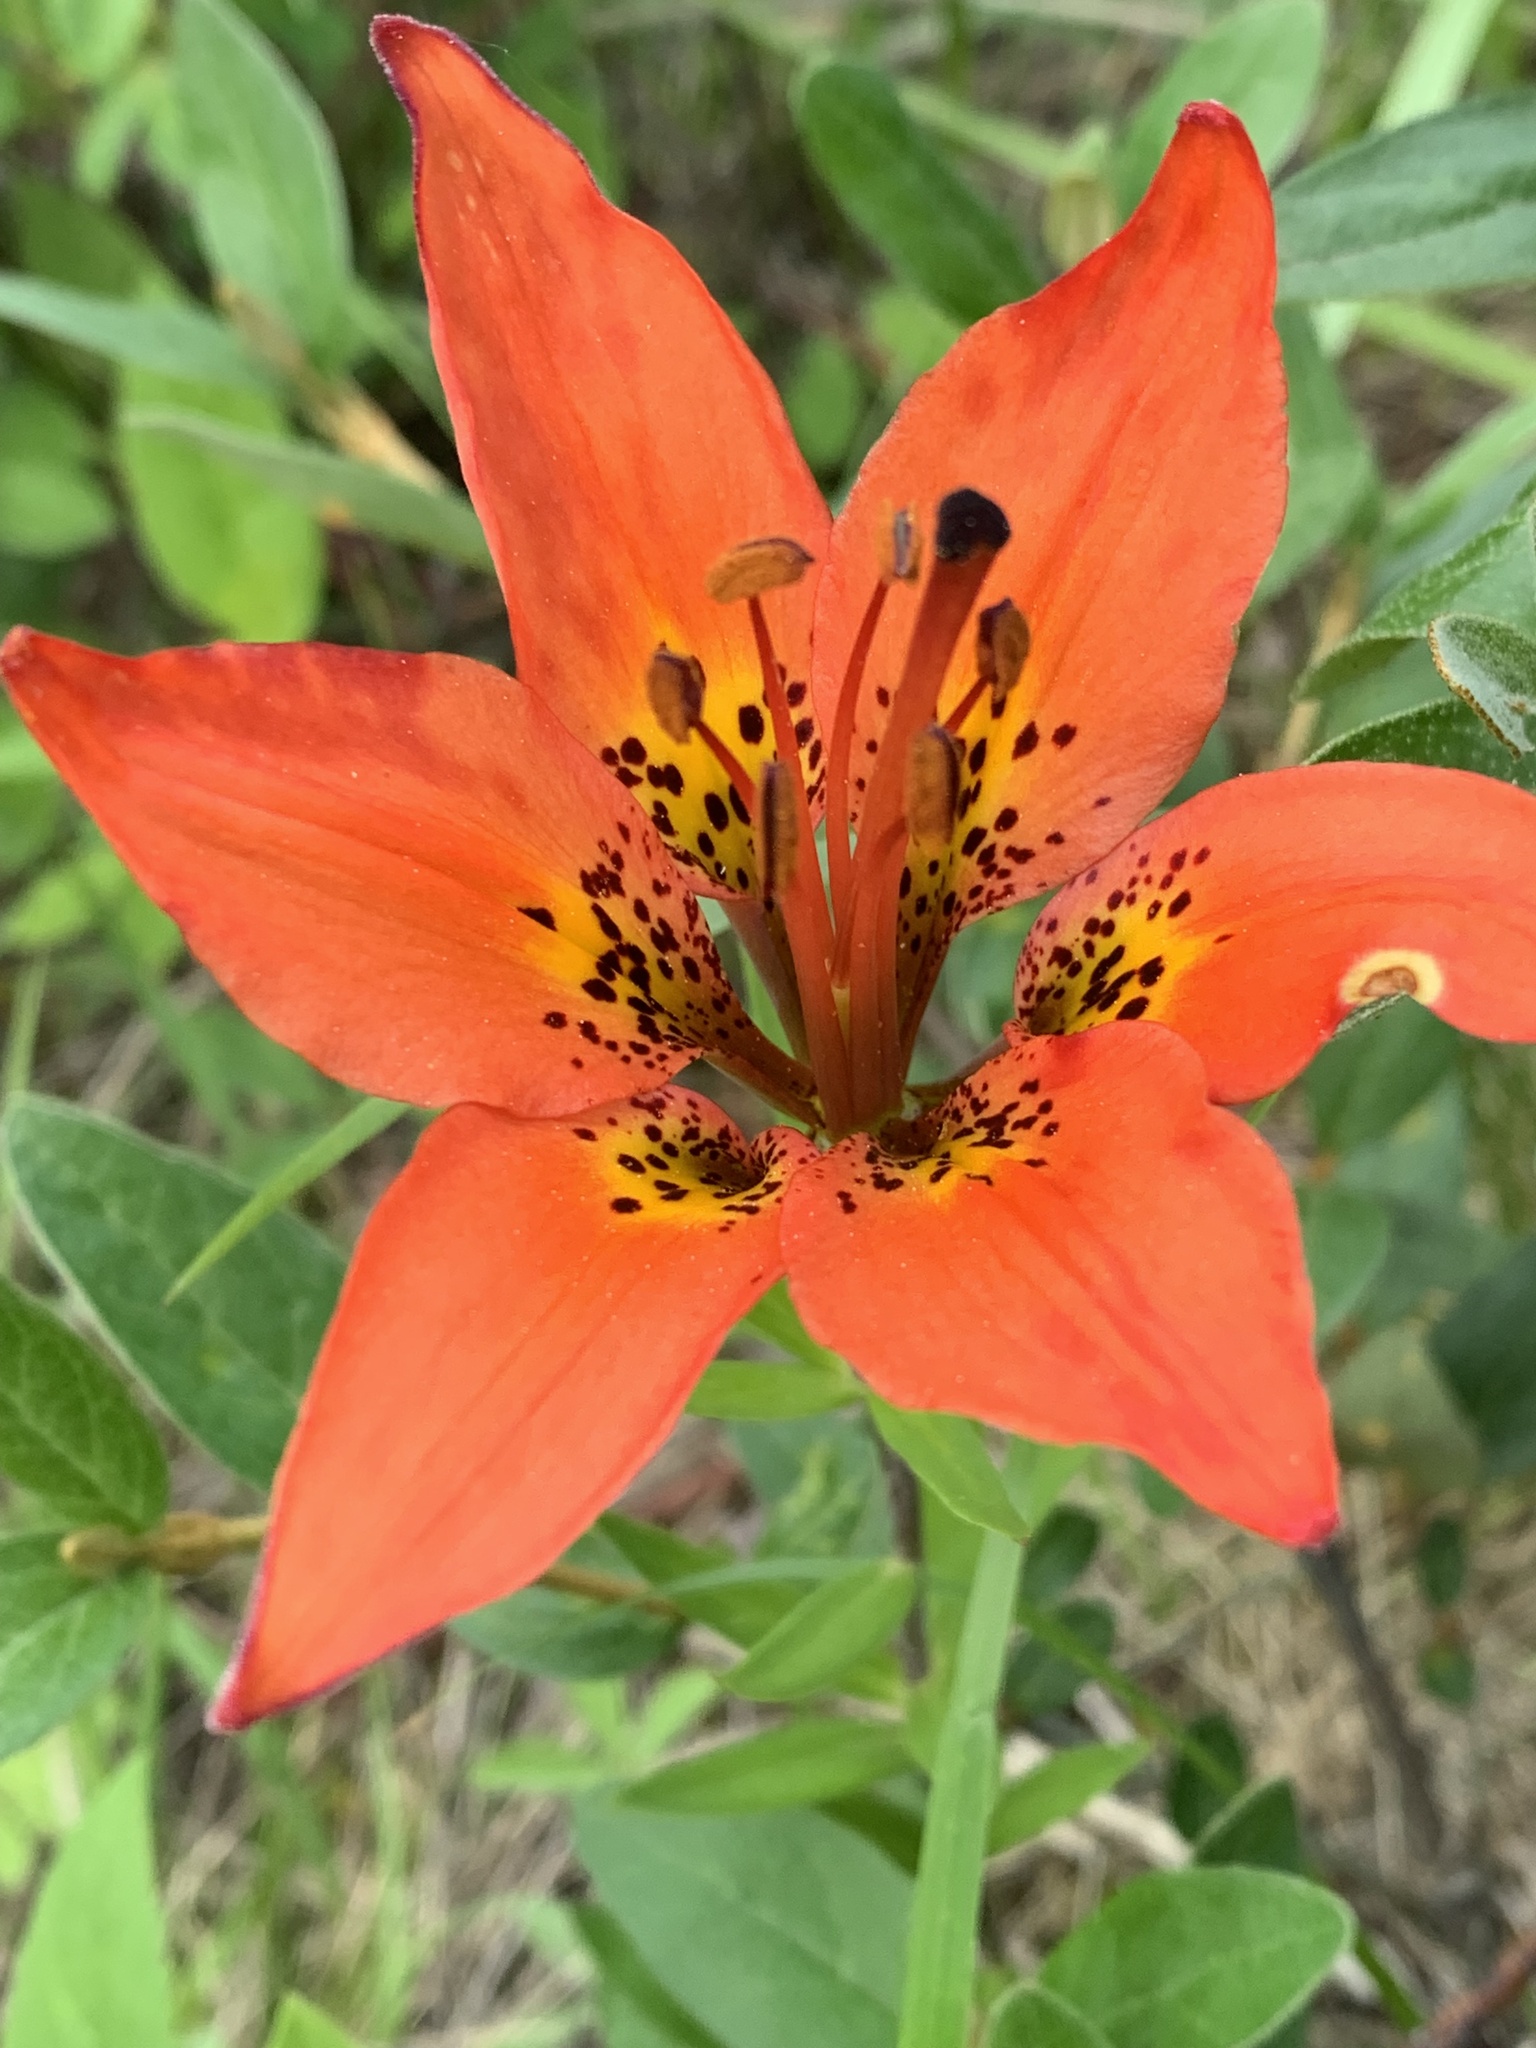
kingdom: Plantae
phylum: Tracheophyta
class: Liliopsida
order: Liliales
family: Liliaceae
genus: Lilium
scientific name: Lilium philadelphicum
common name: Red lily
